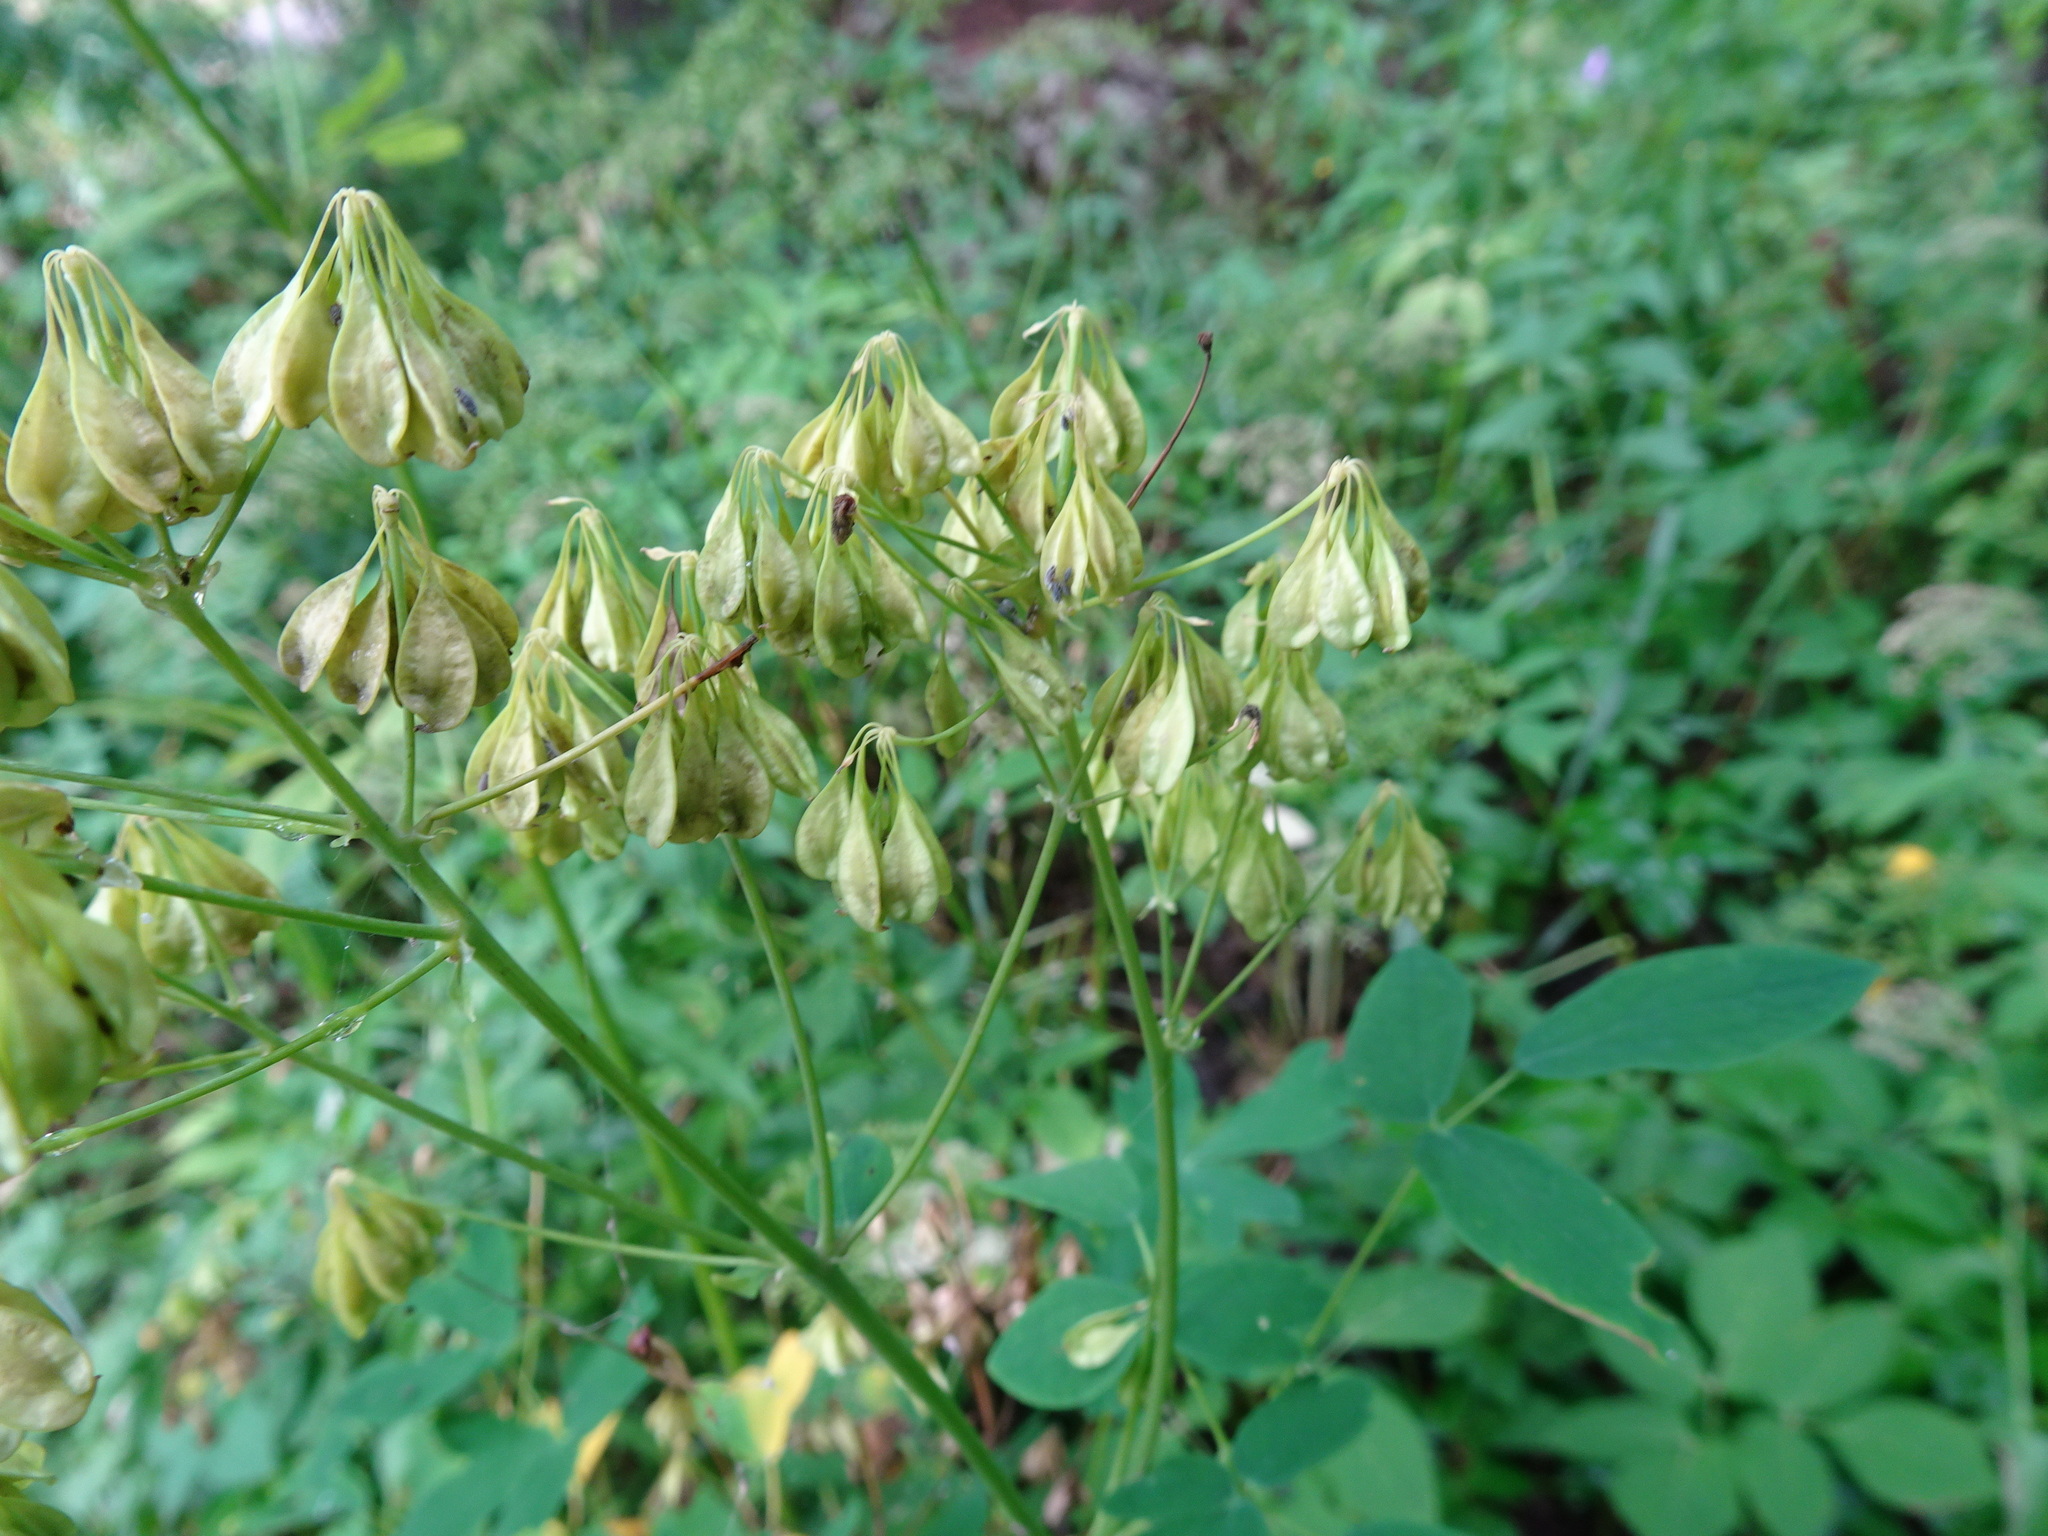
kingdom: Plantae
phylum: Tracheophyta
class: Magnoliopsida
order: Ranunculales
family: Ranunculaceae
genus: Thalictrum
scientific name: Thalictrum aquilegiifolium
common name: French meadow-rue
